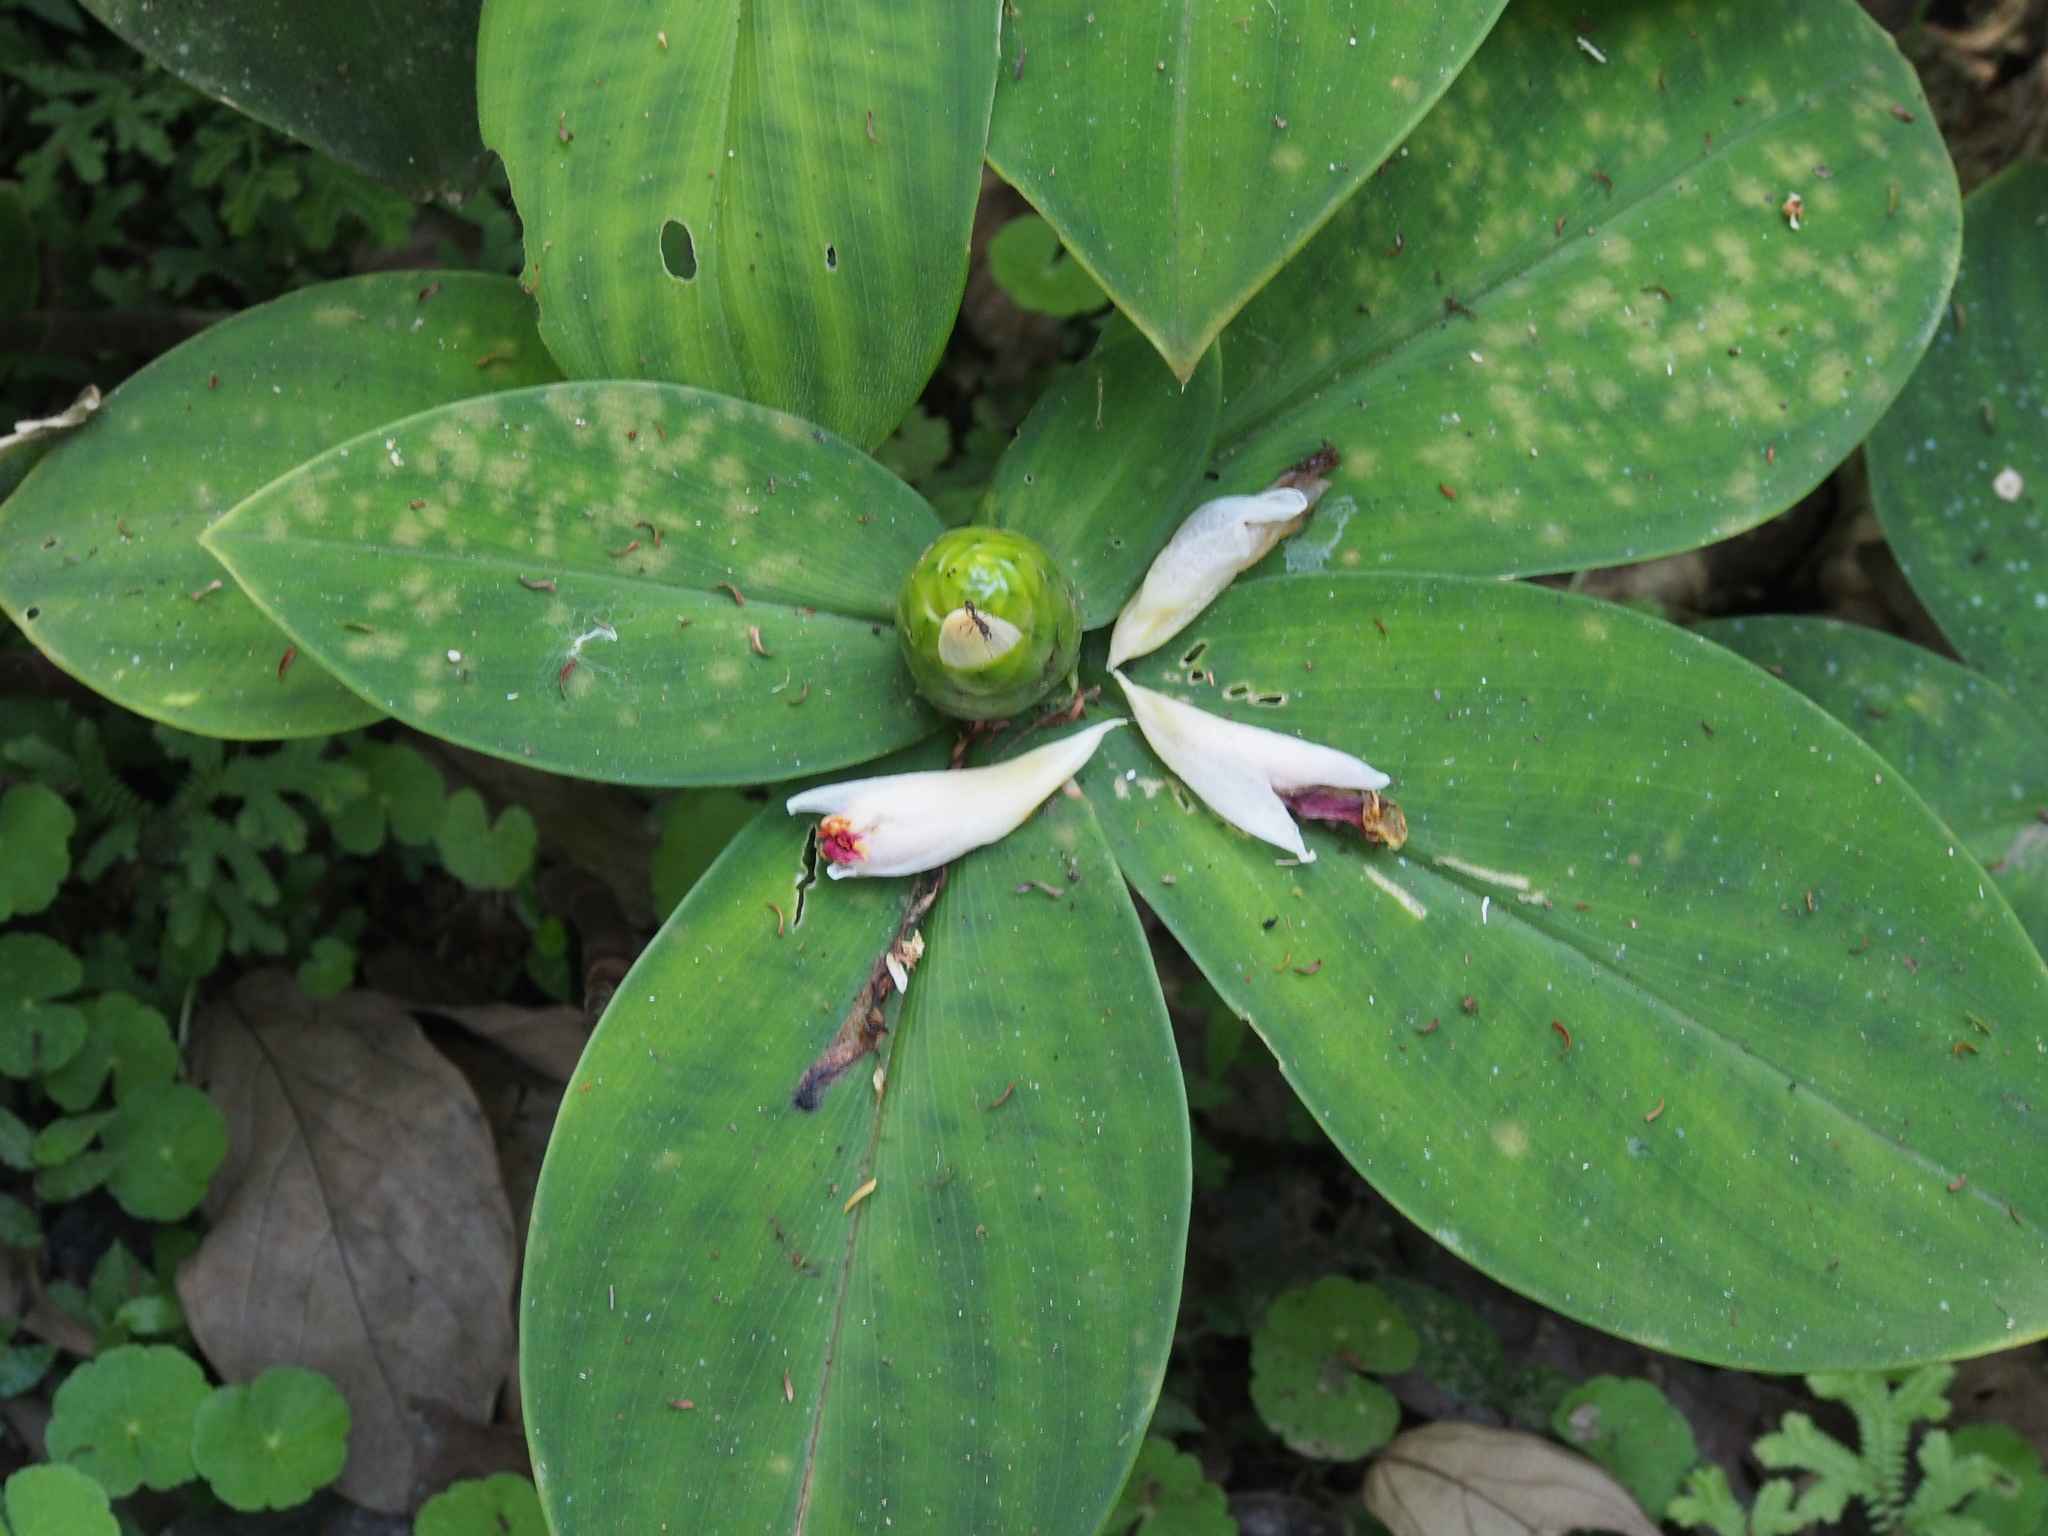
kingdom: Plantae
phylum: Tracheophyta
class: Liliopsida
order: Zingiberales
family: Costaceae
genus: Costus
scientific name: Costus elegans
